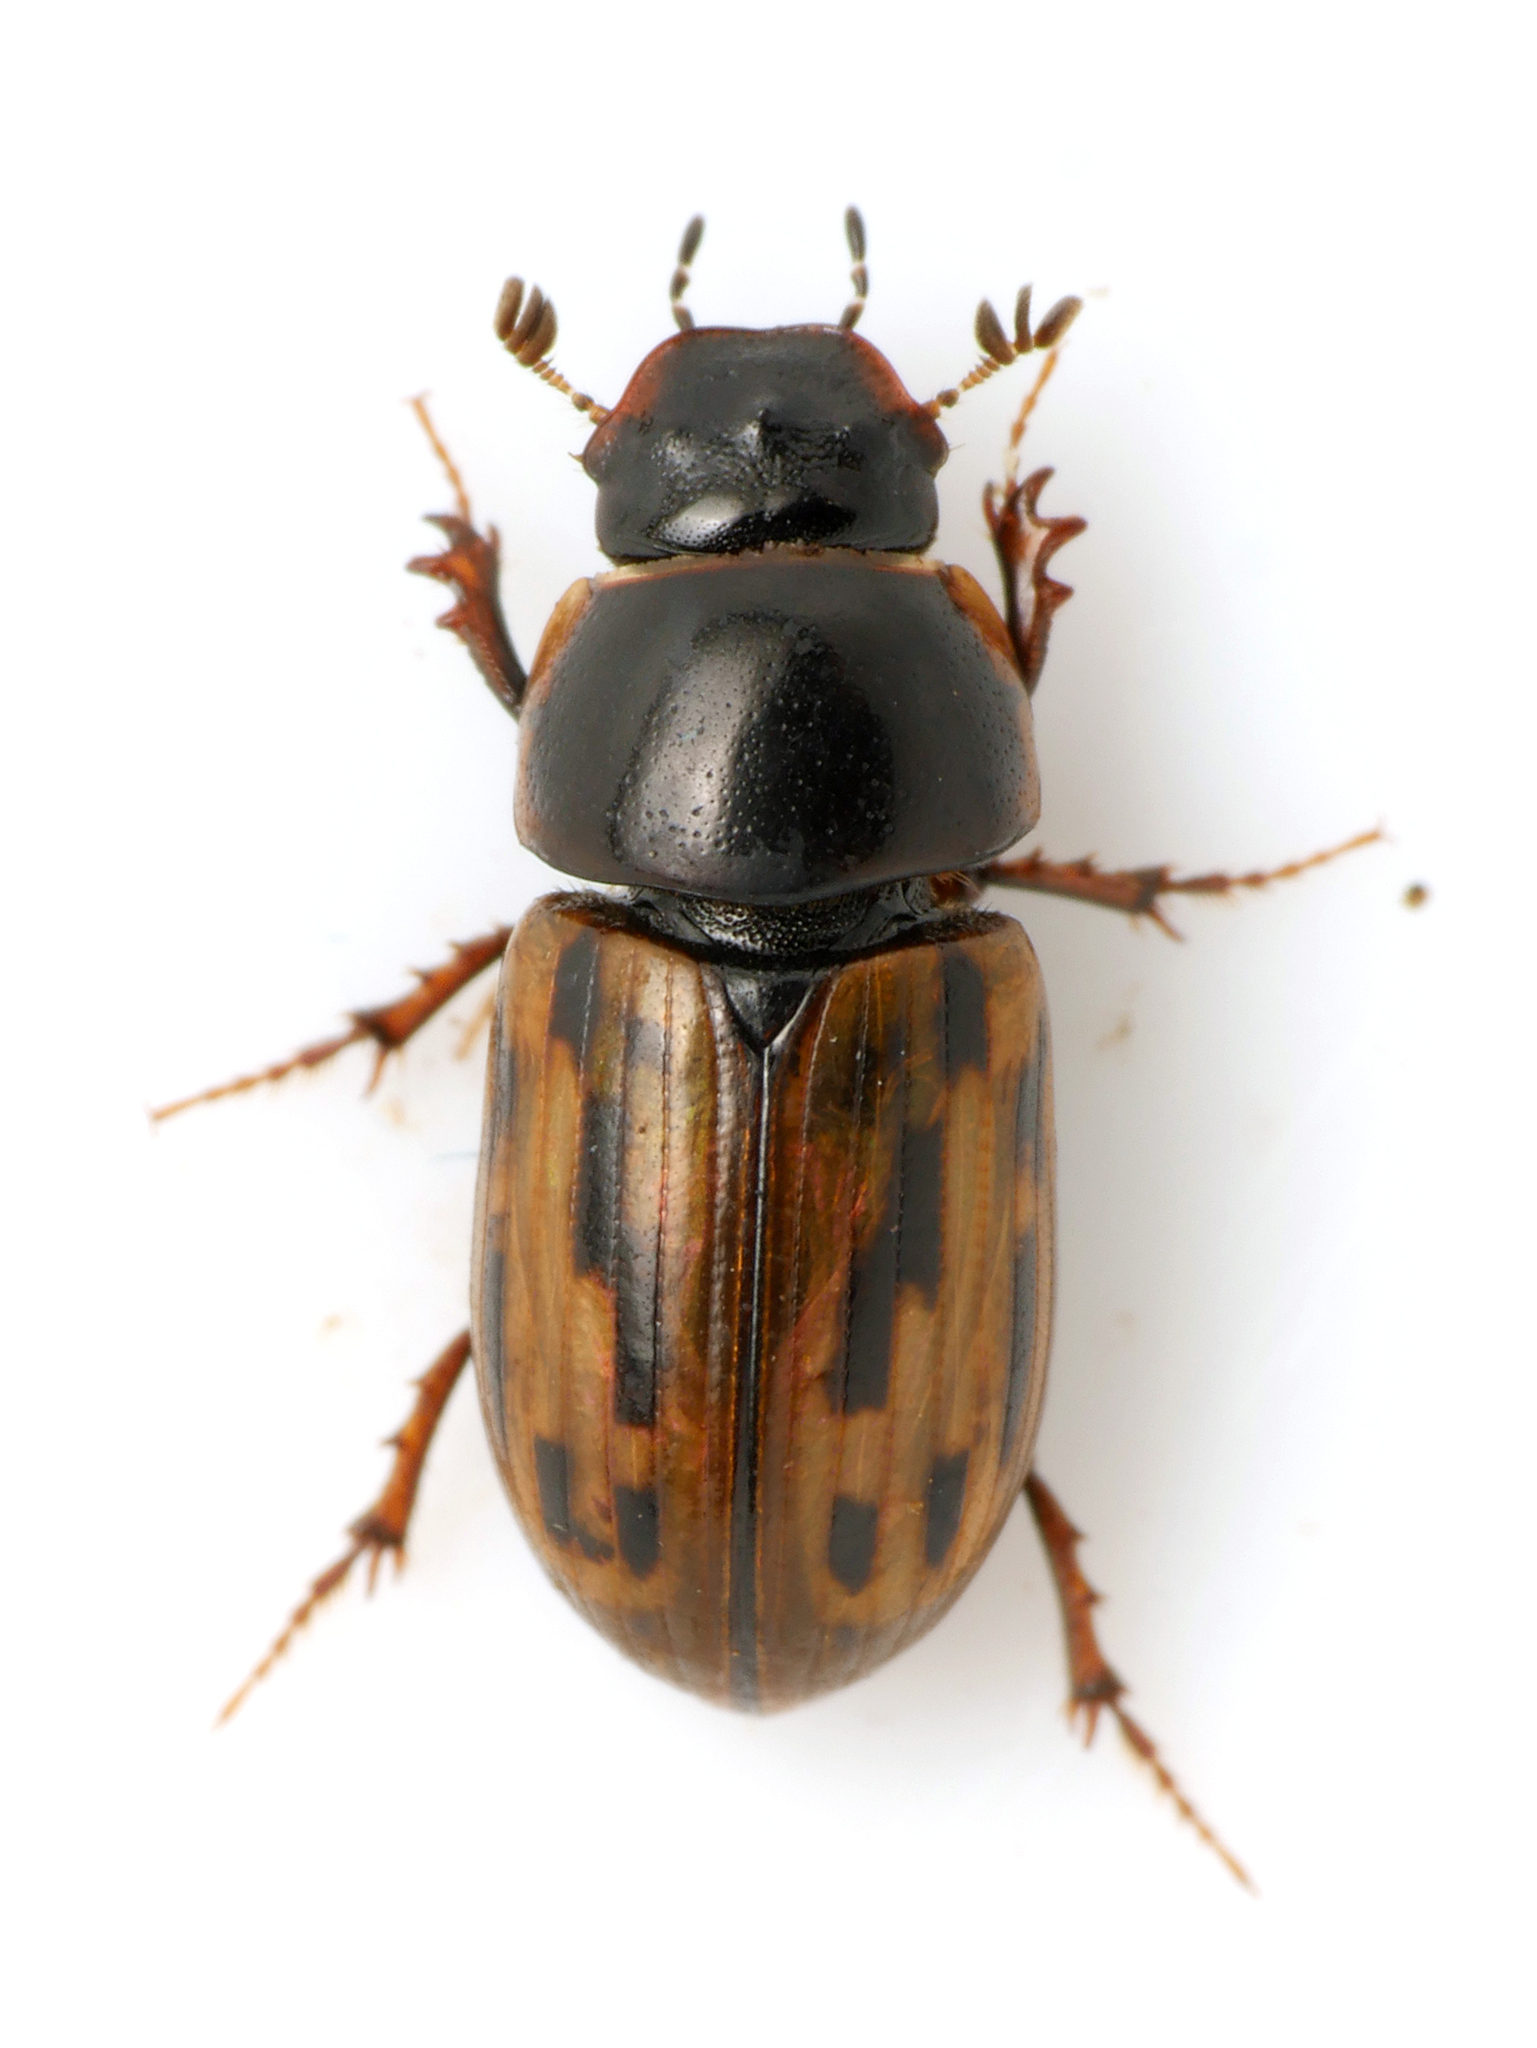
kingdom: Animalia
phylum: Arthropoda
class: Insecta
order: Coleoptera
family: Scarabaeidae
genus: Chilothorax
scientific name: Chilothorax conspurcatus
